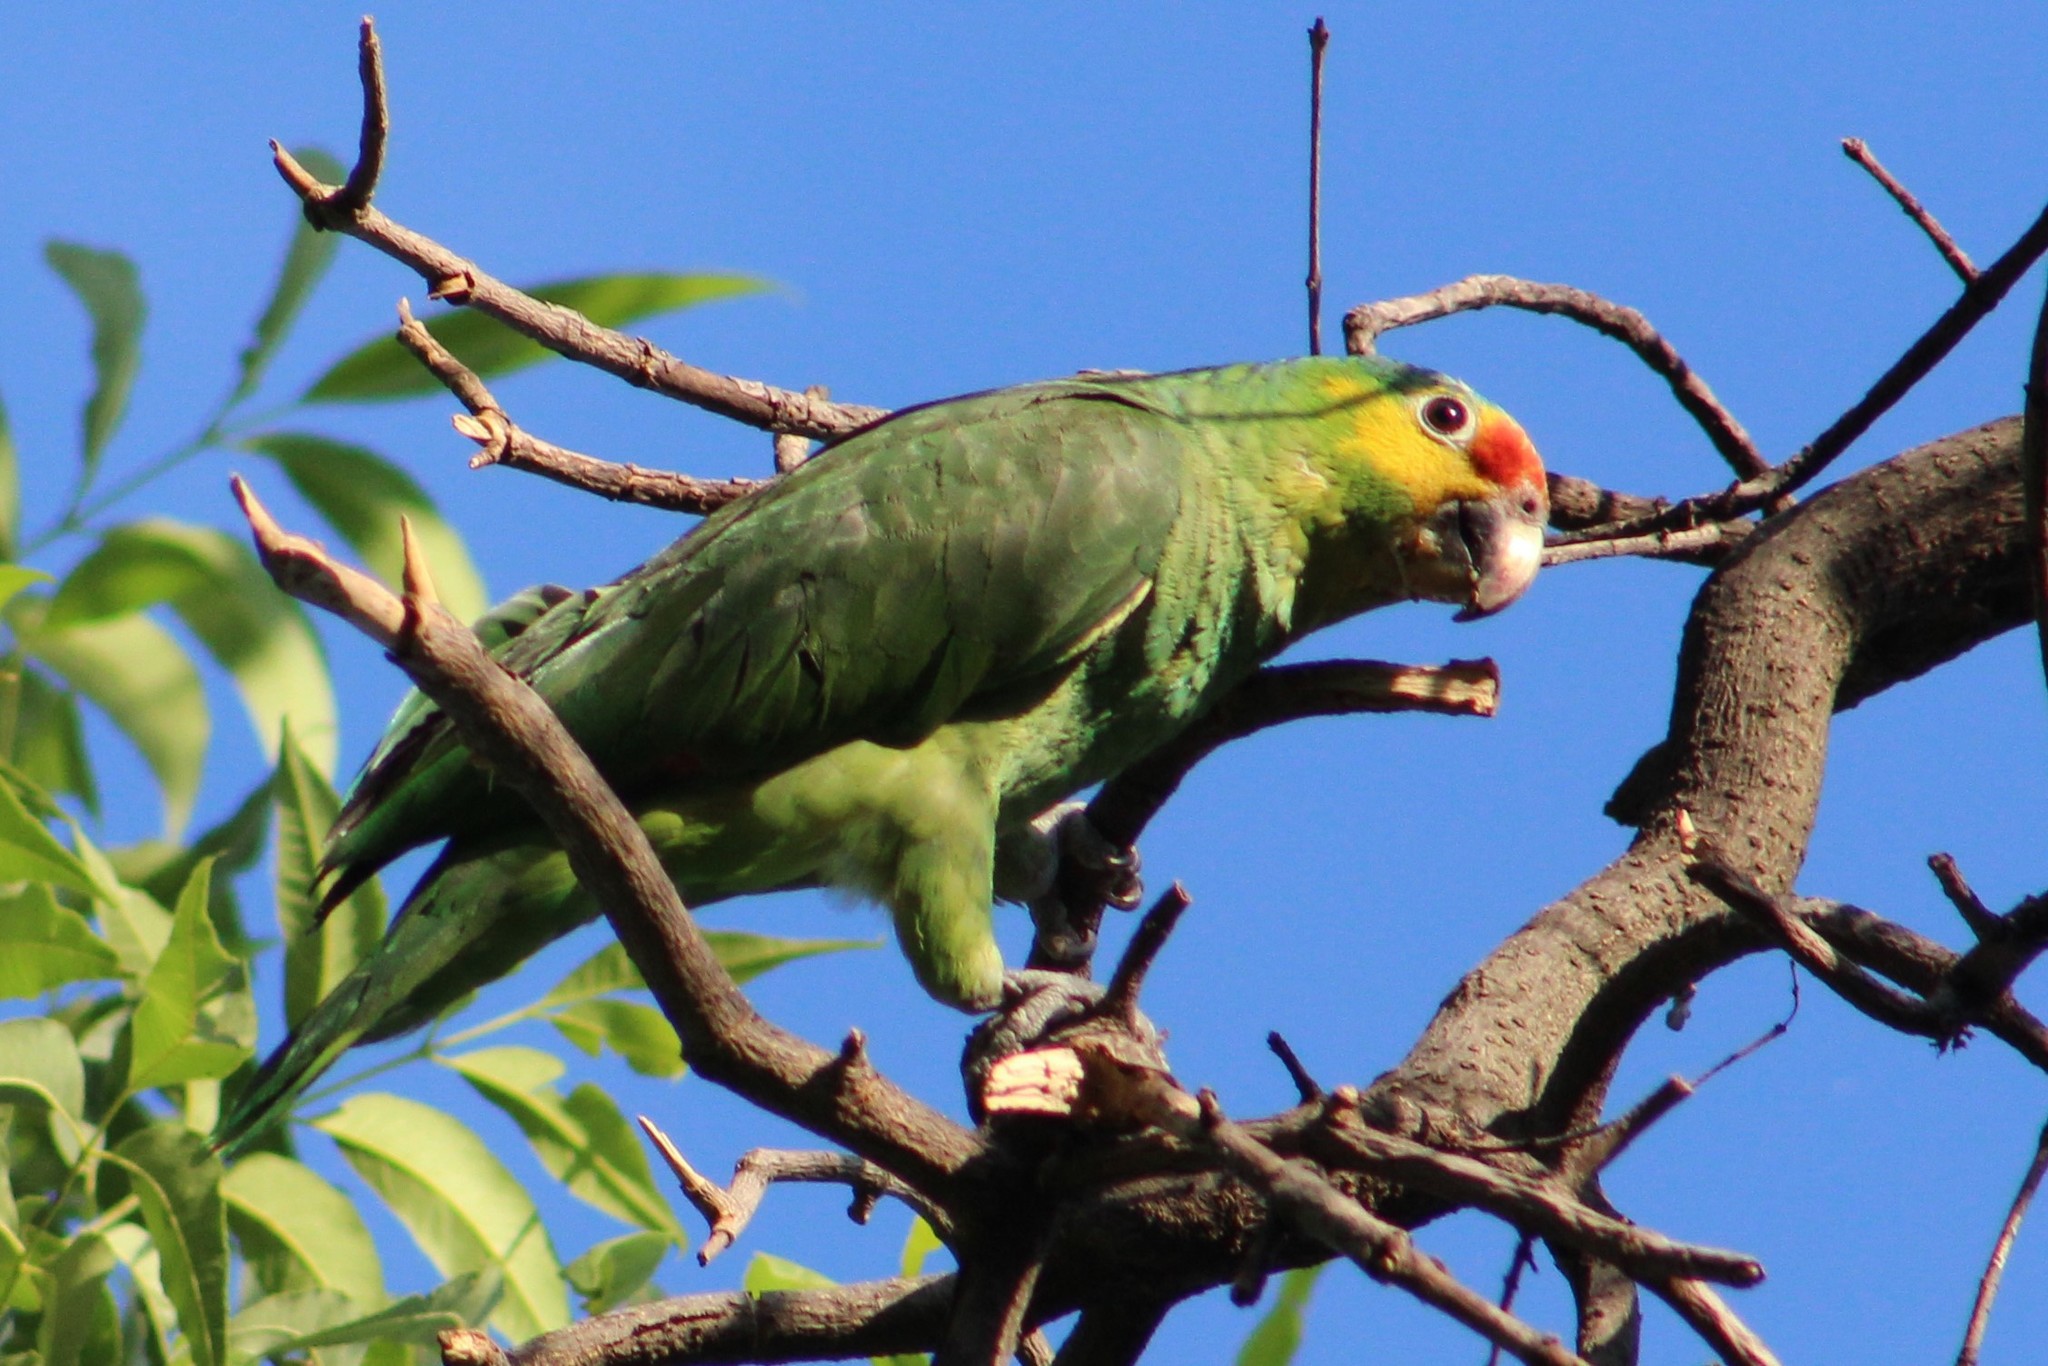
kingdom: Animalia
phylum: Chordata
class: Aves
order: Psittaciformes
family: Psittacidae
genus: Amazona
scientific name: Amazona autumnalis
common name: Red-lored amazon
